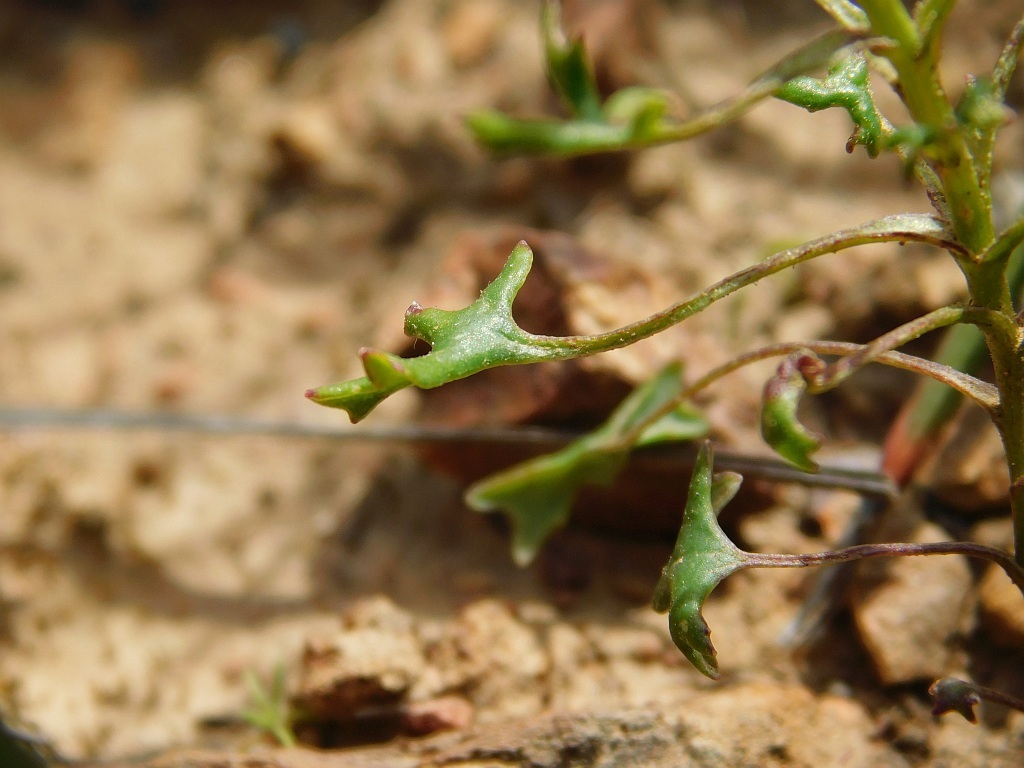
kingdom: Plantae
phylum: Tracheophyta
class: Magnoliopsida
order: Asterales
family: Asteraceae
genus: Senecio
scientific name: Senecio hastifolius
